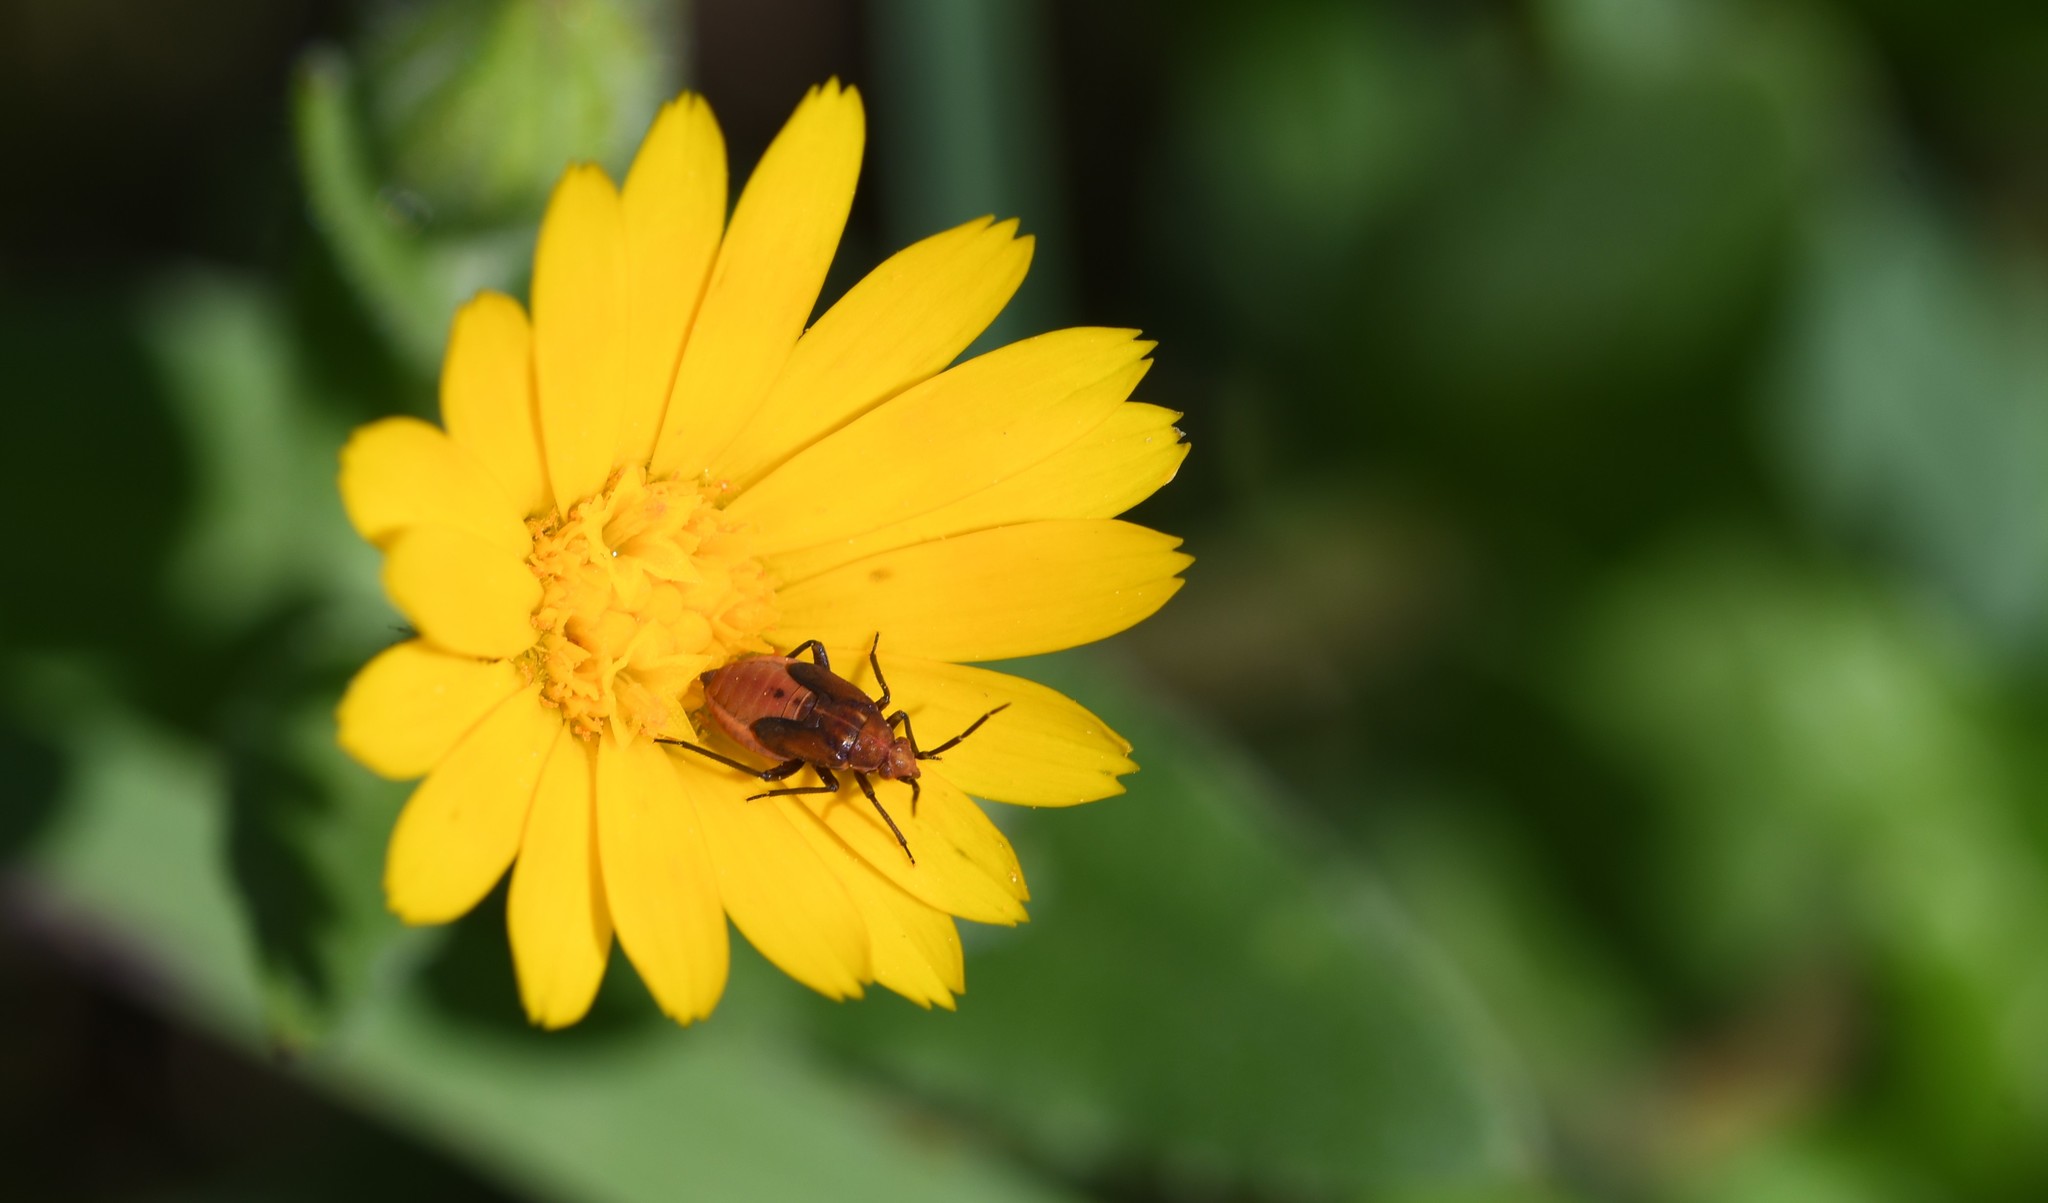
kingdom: Animalia
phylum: Arthropoda
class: Insecta
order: Hemiptera
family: Miridae
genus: Macrotylus
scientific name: Macrotylus nigricornis
